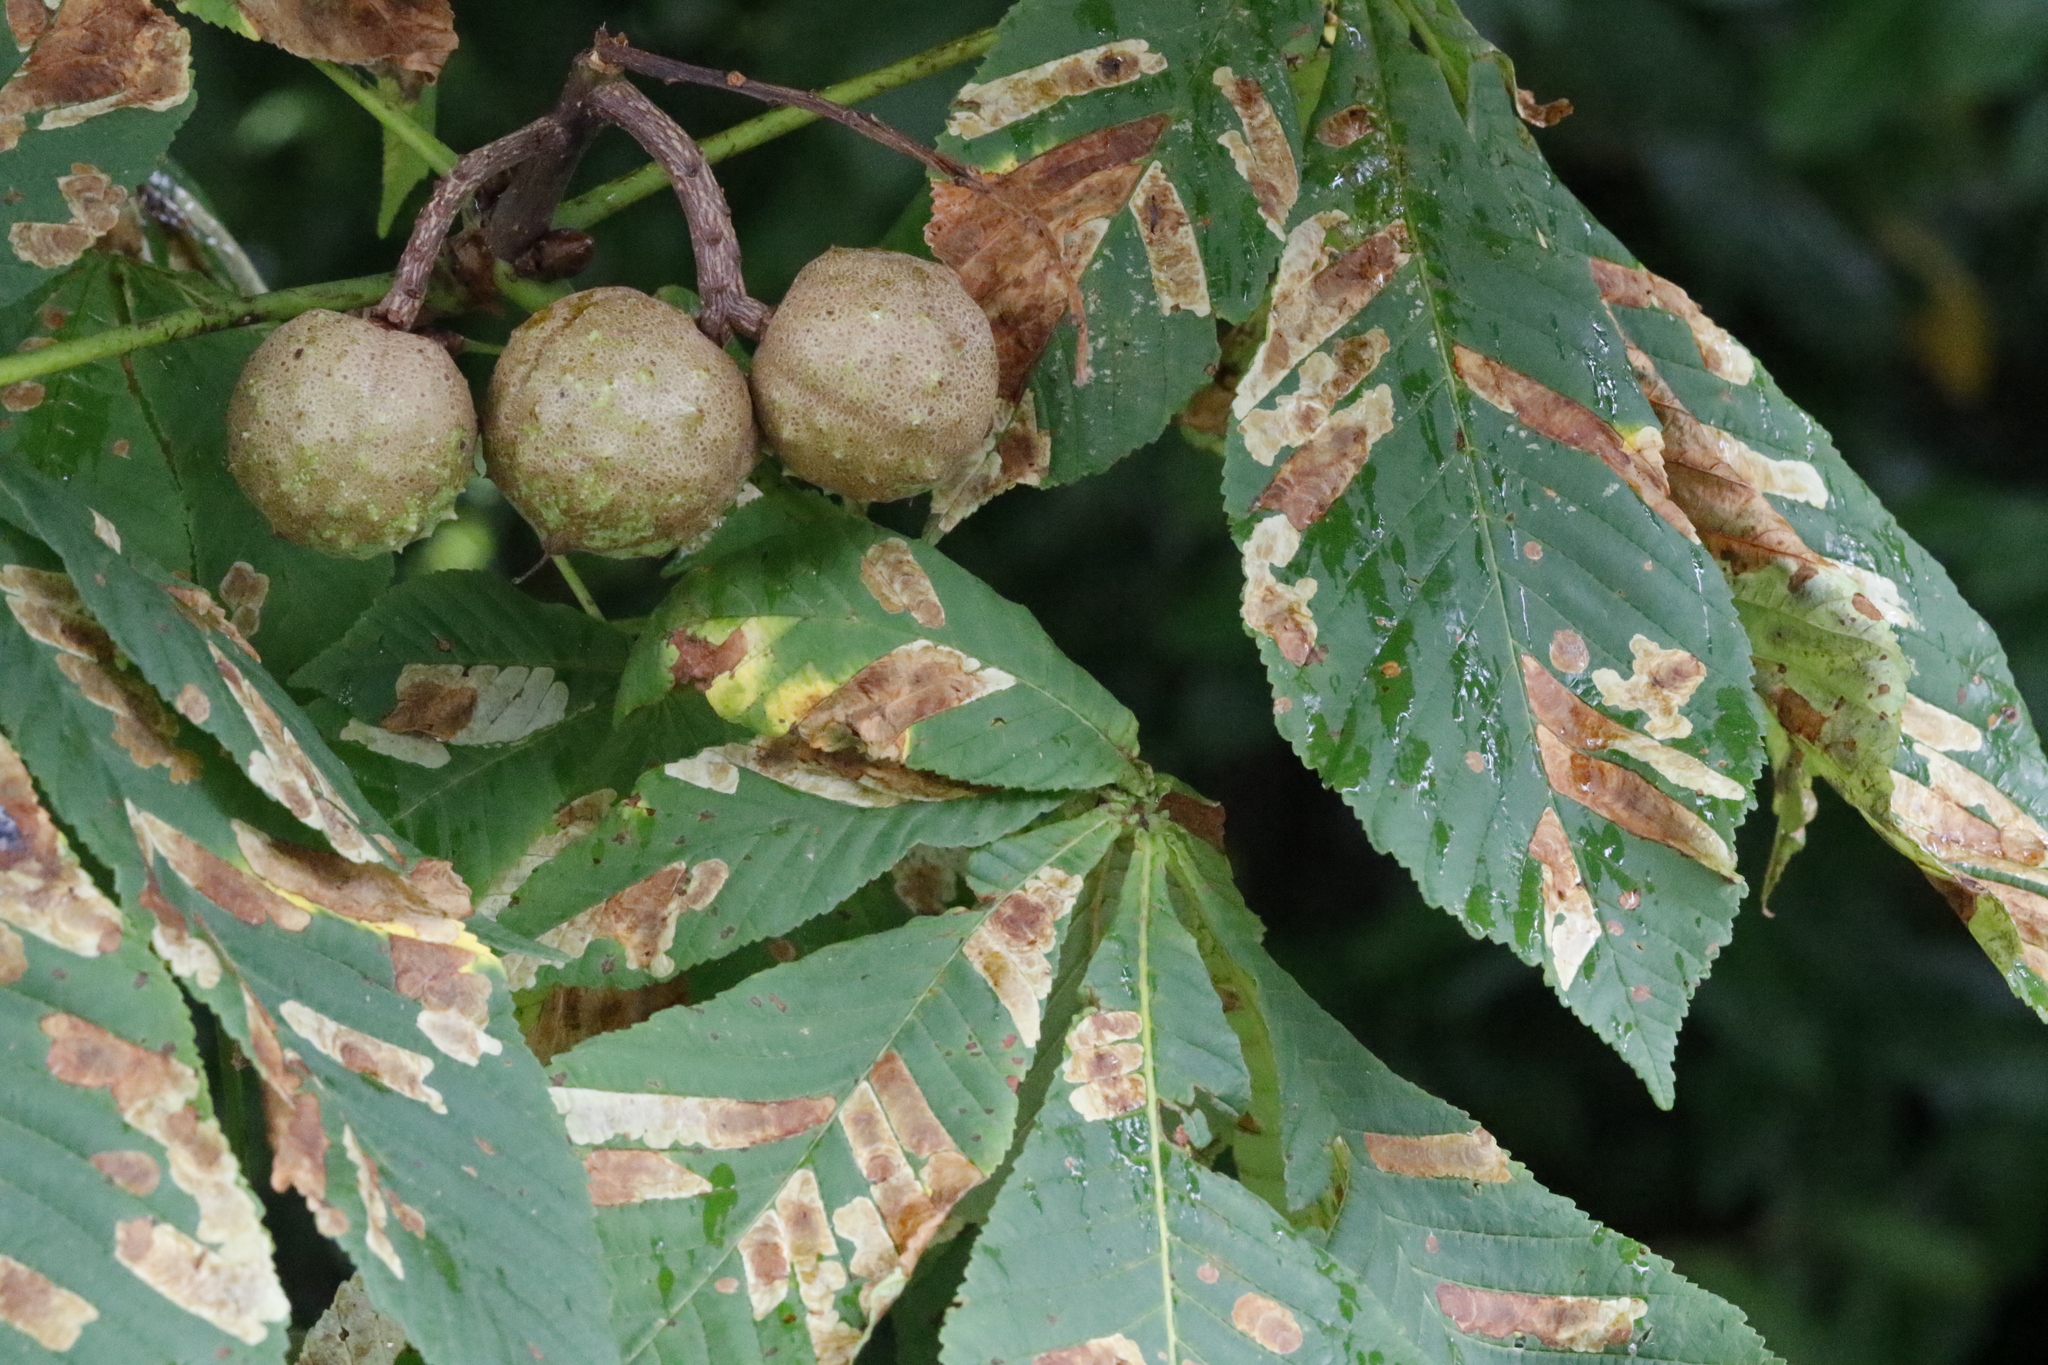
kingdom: Animalia
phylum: Arthropoda
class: Insecta
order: Lepidoptera
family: Gracillariidae
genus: Cameraria
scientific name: Cameraria ohridella
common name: Horse-chestnut leaf-miner
